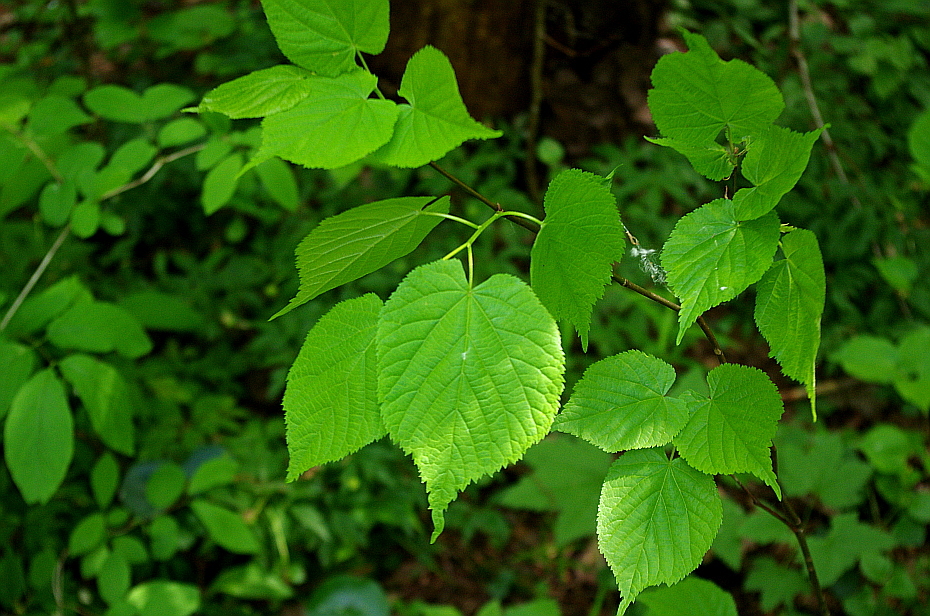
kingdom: Plantae
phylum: Tracheophyta
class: Magnoliopsida
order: Malvales
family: Malvaceae
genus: Tilia
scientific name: Tilia cordata
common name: Small-leaved lime
